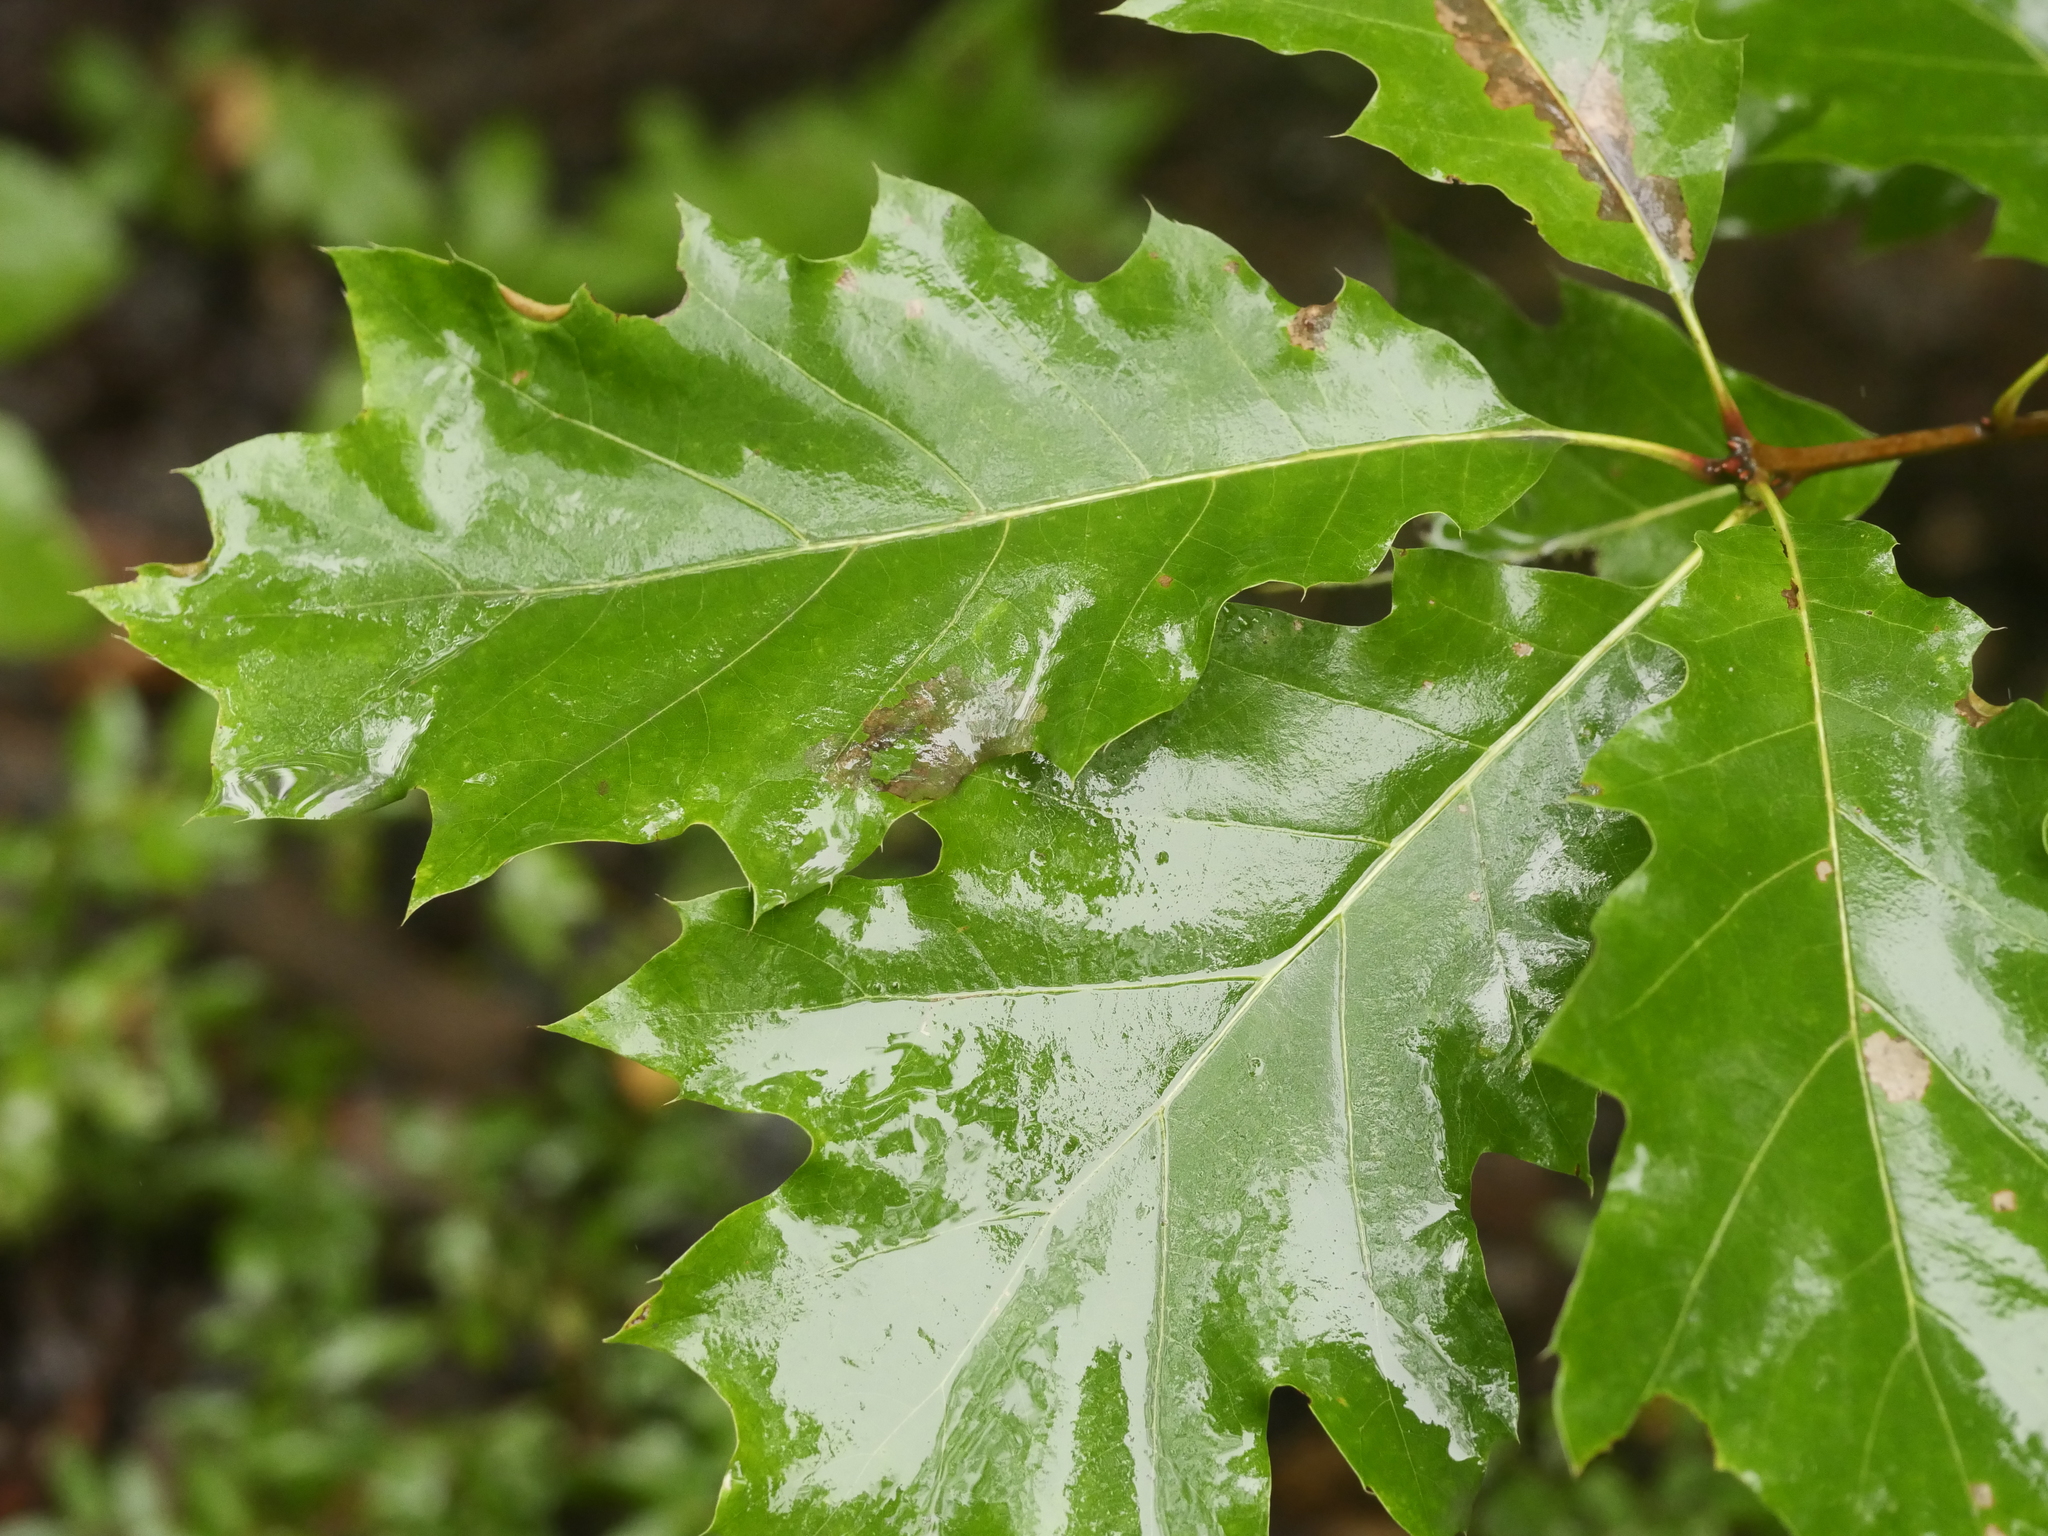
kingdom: Plantae
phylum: Tracheophyta
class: Magnoliopsida
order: Fagales
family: Fagaceae
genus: Quercus
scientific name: Quercus rubra
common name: Red oak
